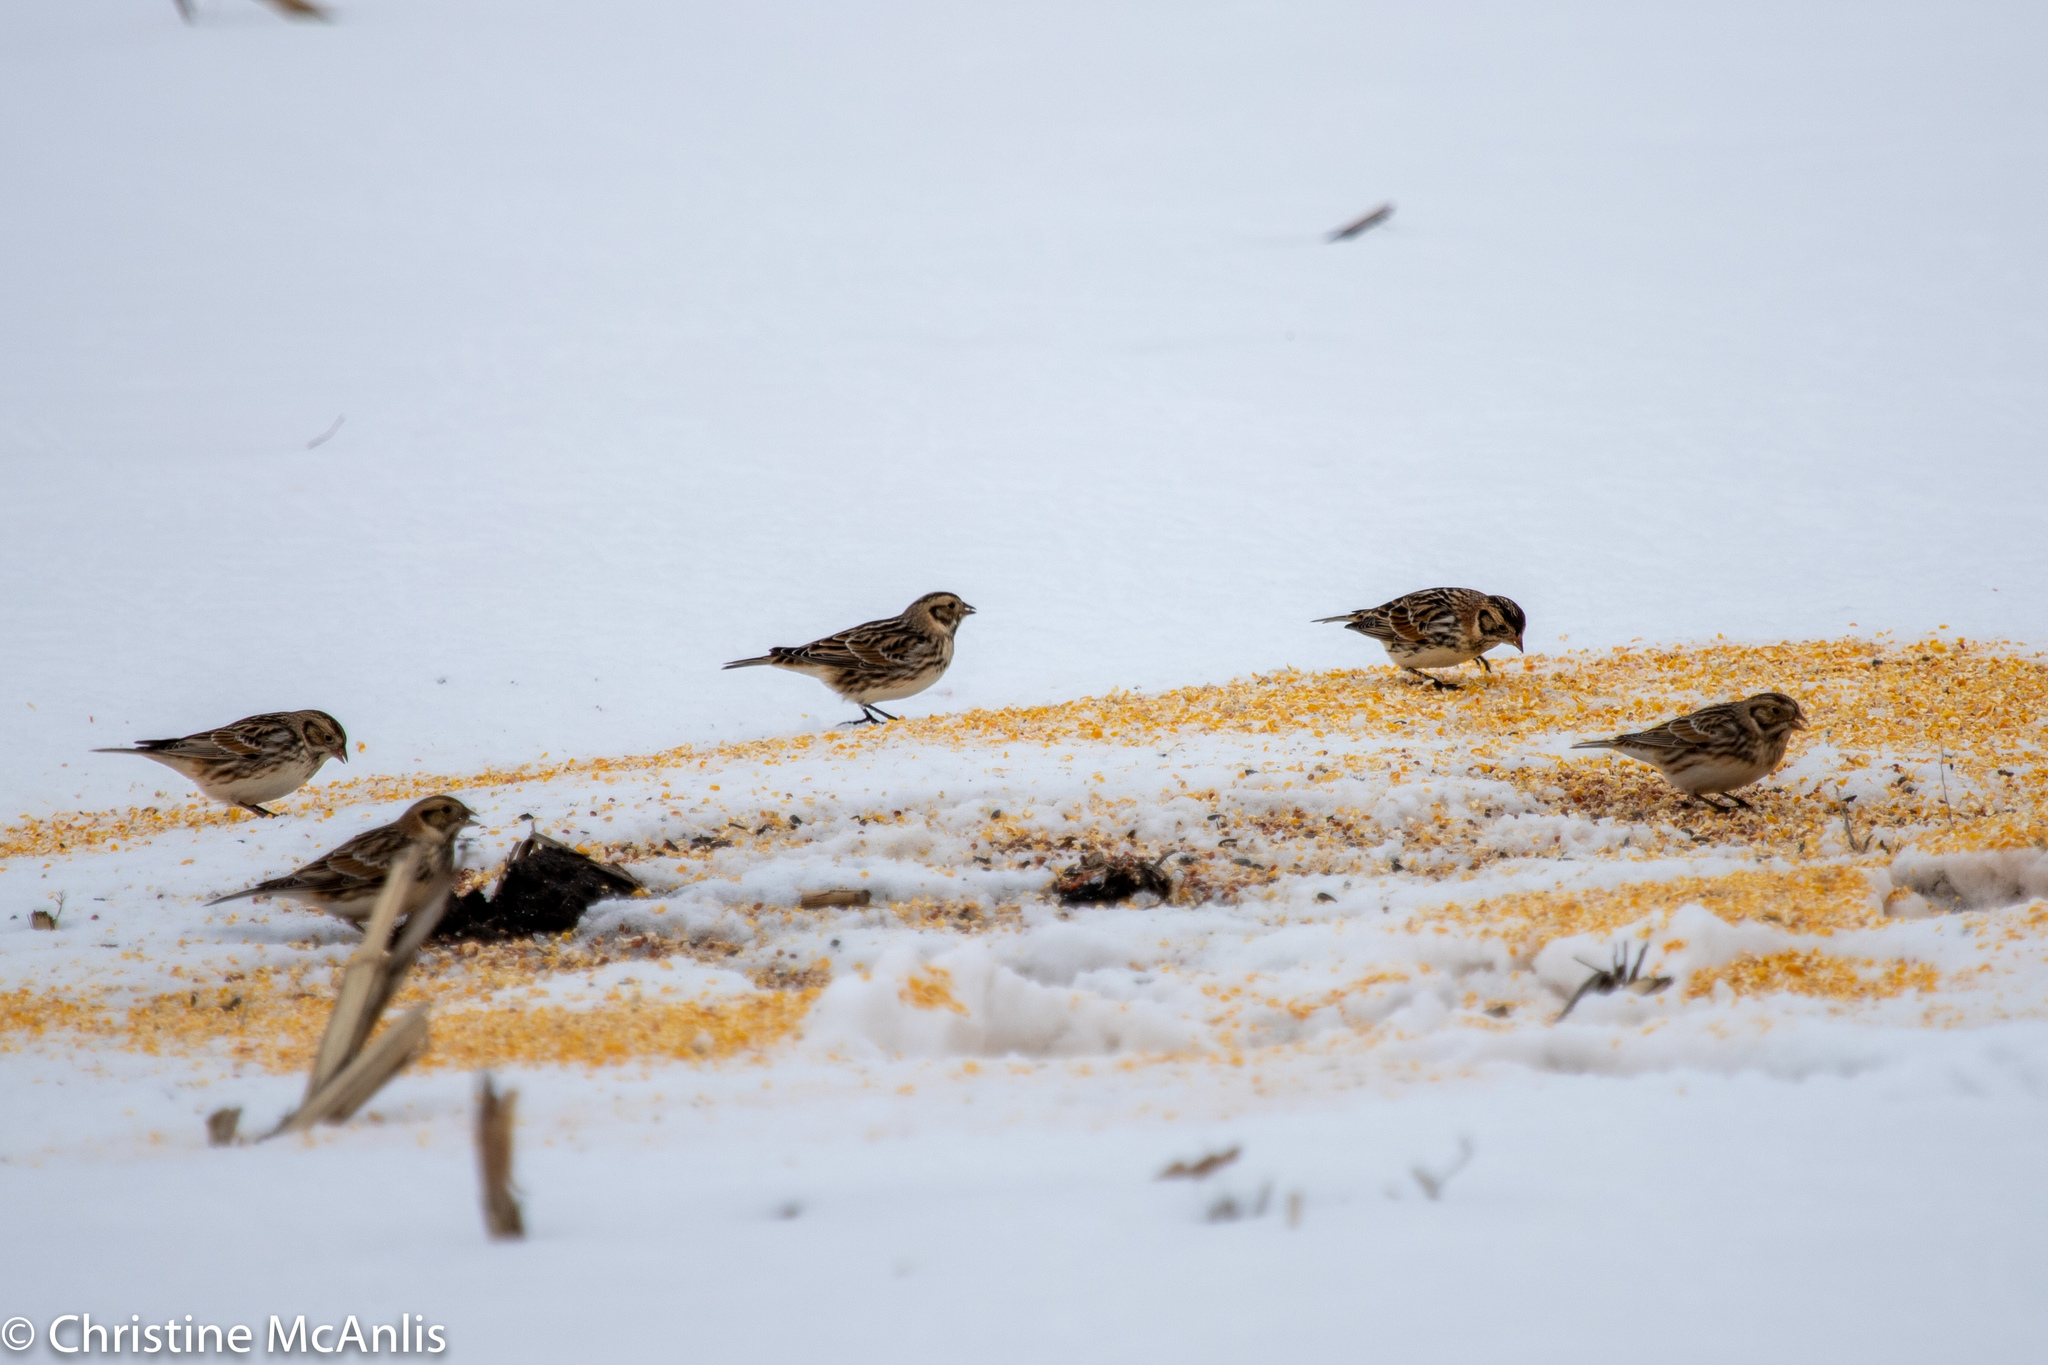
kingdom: Animalia
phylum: Chordata
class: Aves
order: Passeriformes
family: Calcariidae
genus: Calcarius
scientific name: Calcarius lapponicus
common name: Lapland longspur
